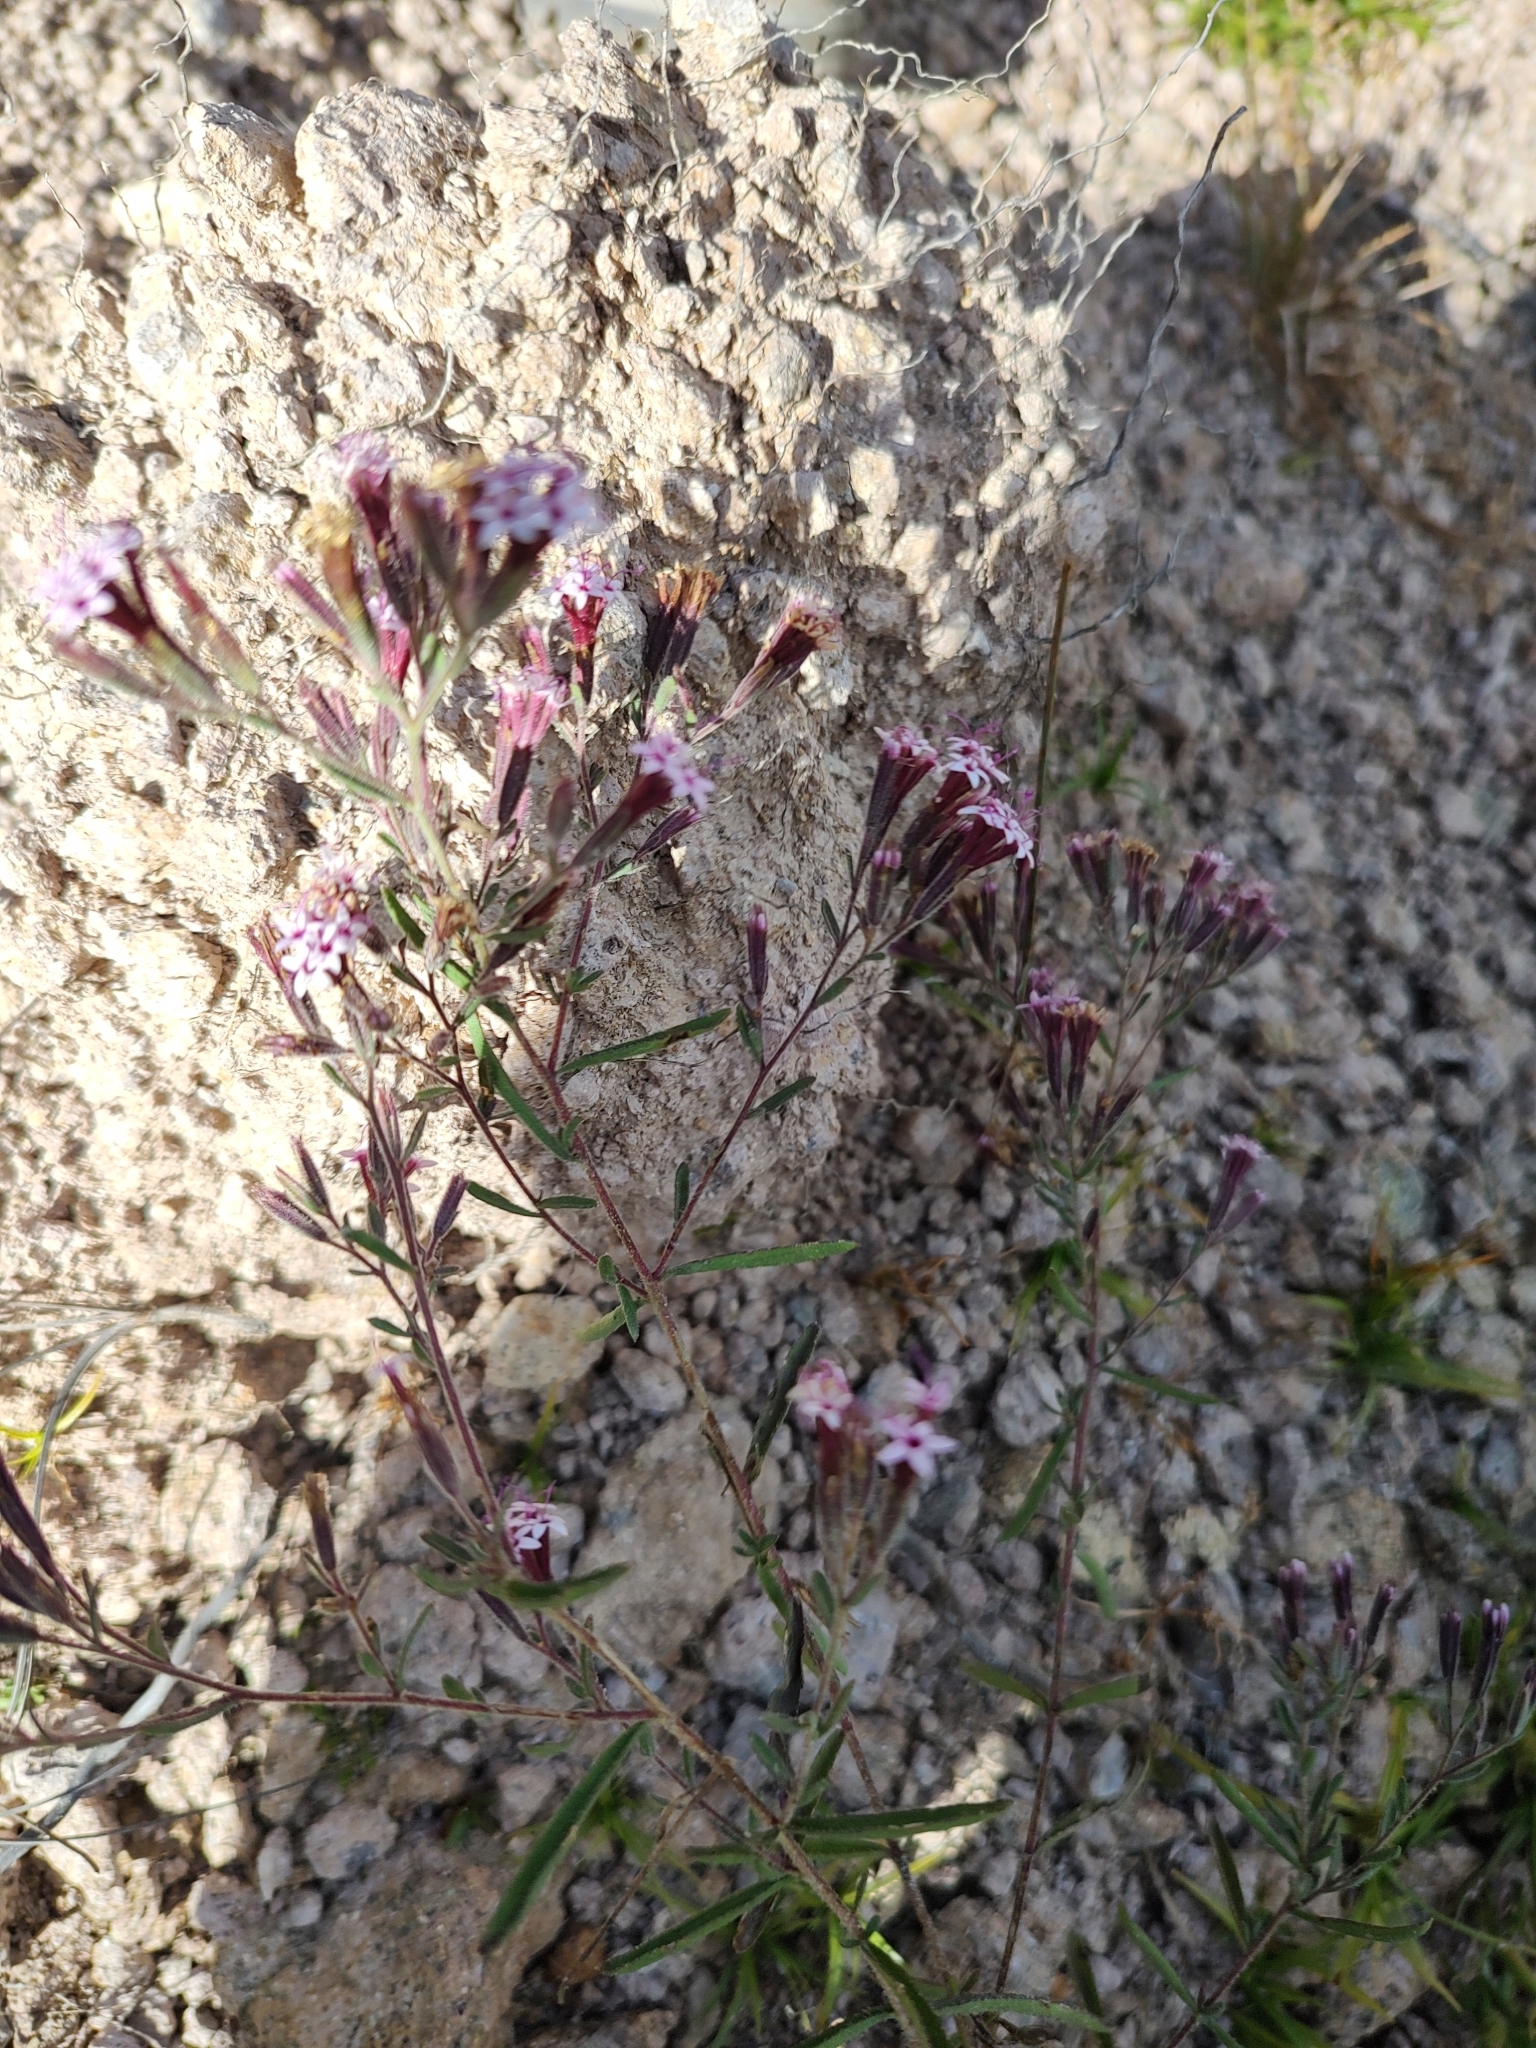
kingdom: Plantae
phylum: Tracheophyta
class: Magnoliopsida
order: Asterales
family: Asteraceae
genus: Stevia
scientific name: Stevia viscida
